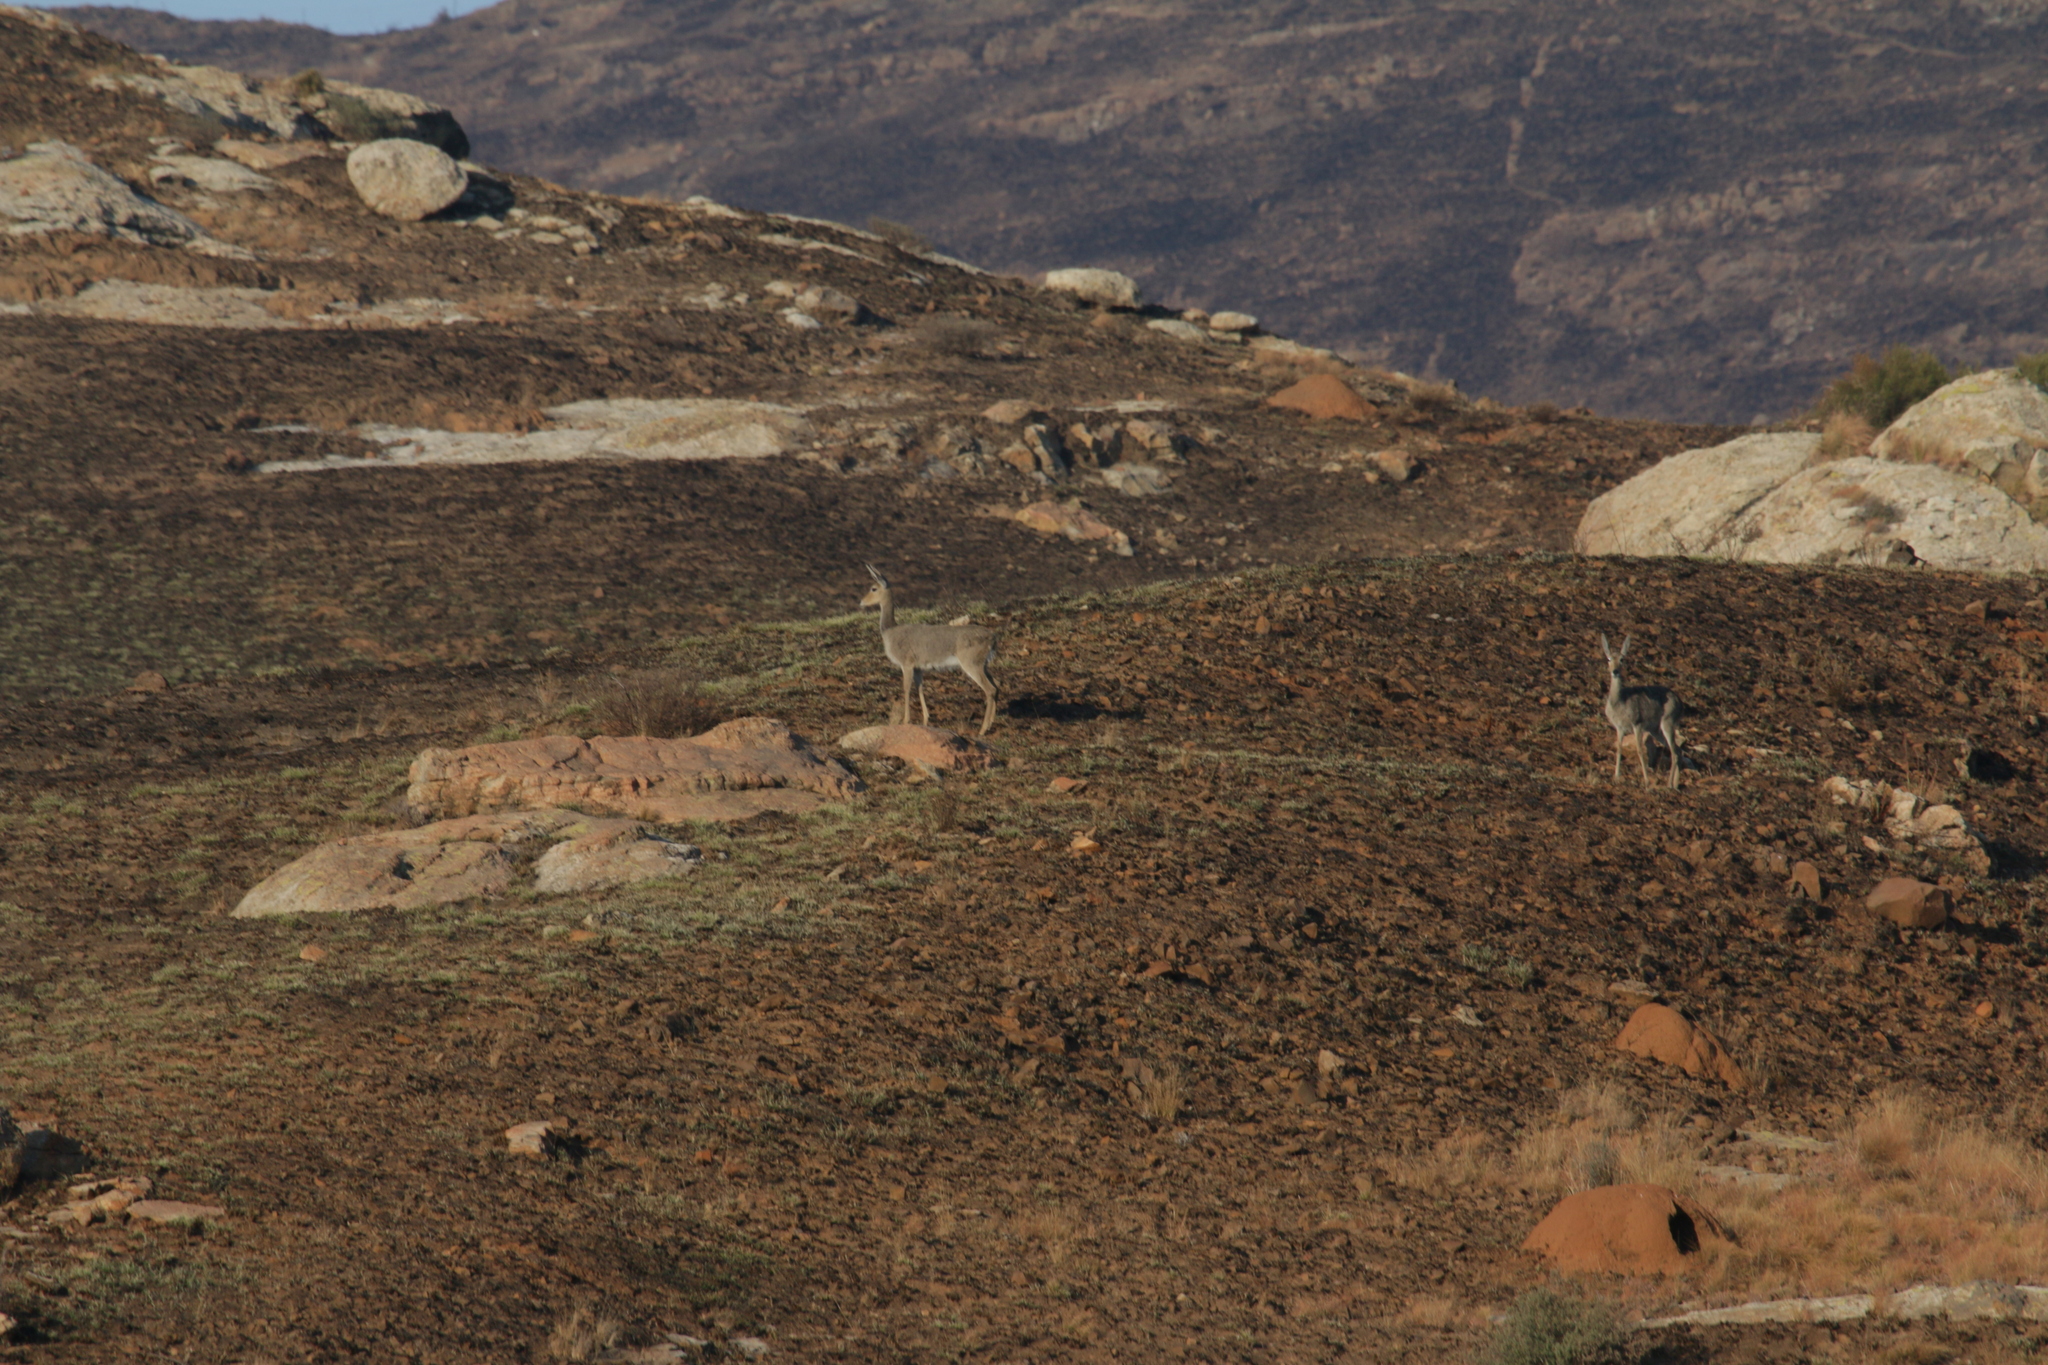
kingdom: Animalia
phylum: Chordata
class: Mammalia
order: Artiodactyla
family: Bovidae
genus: Pelea
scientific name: Pelea capreolus
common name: Common rhebok
